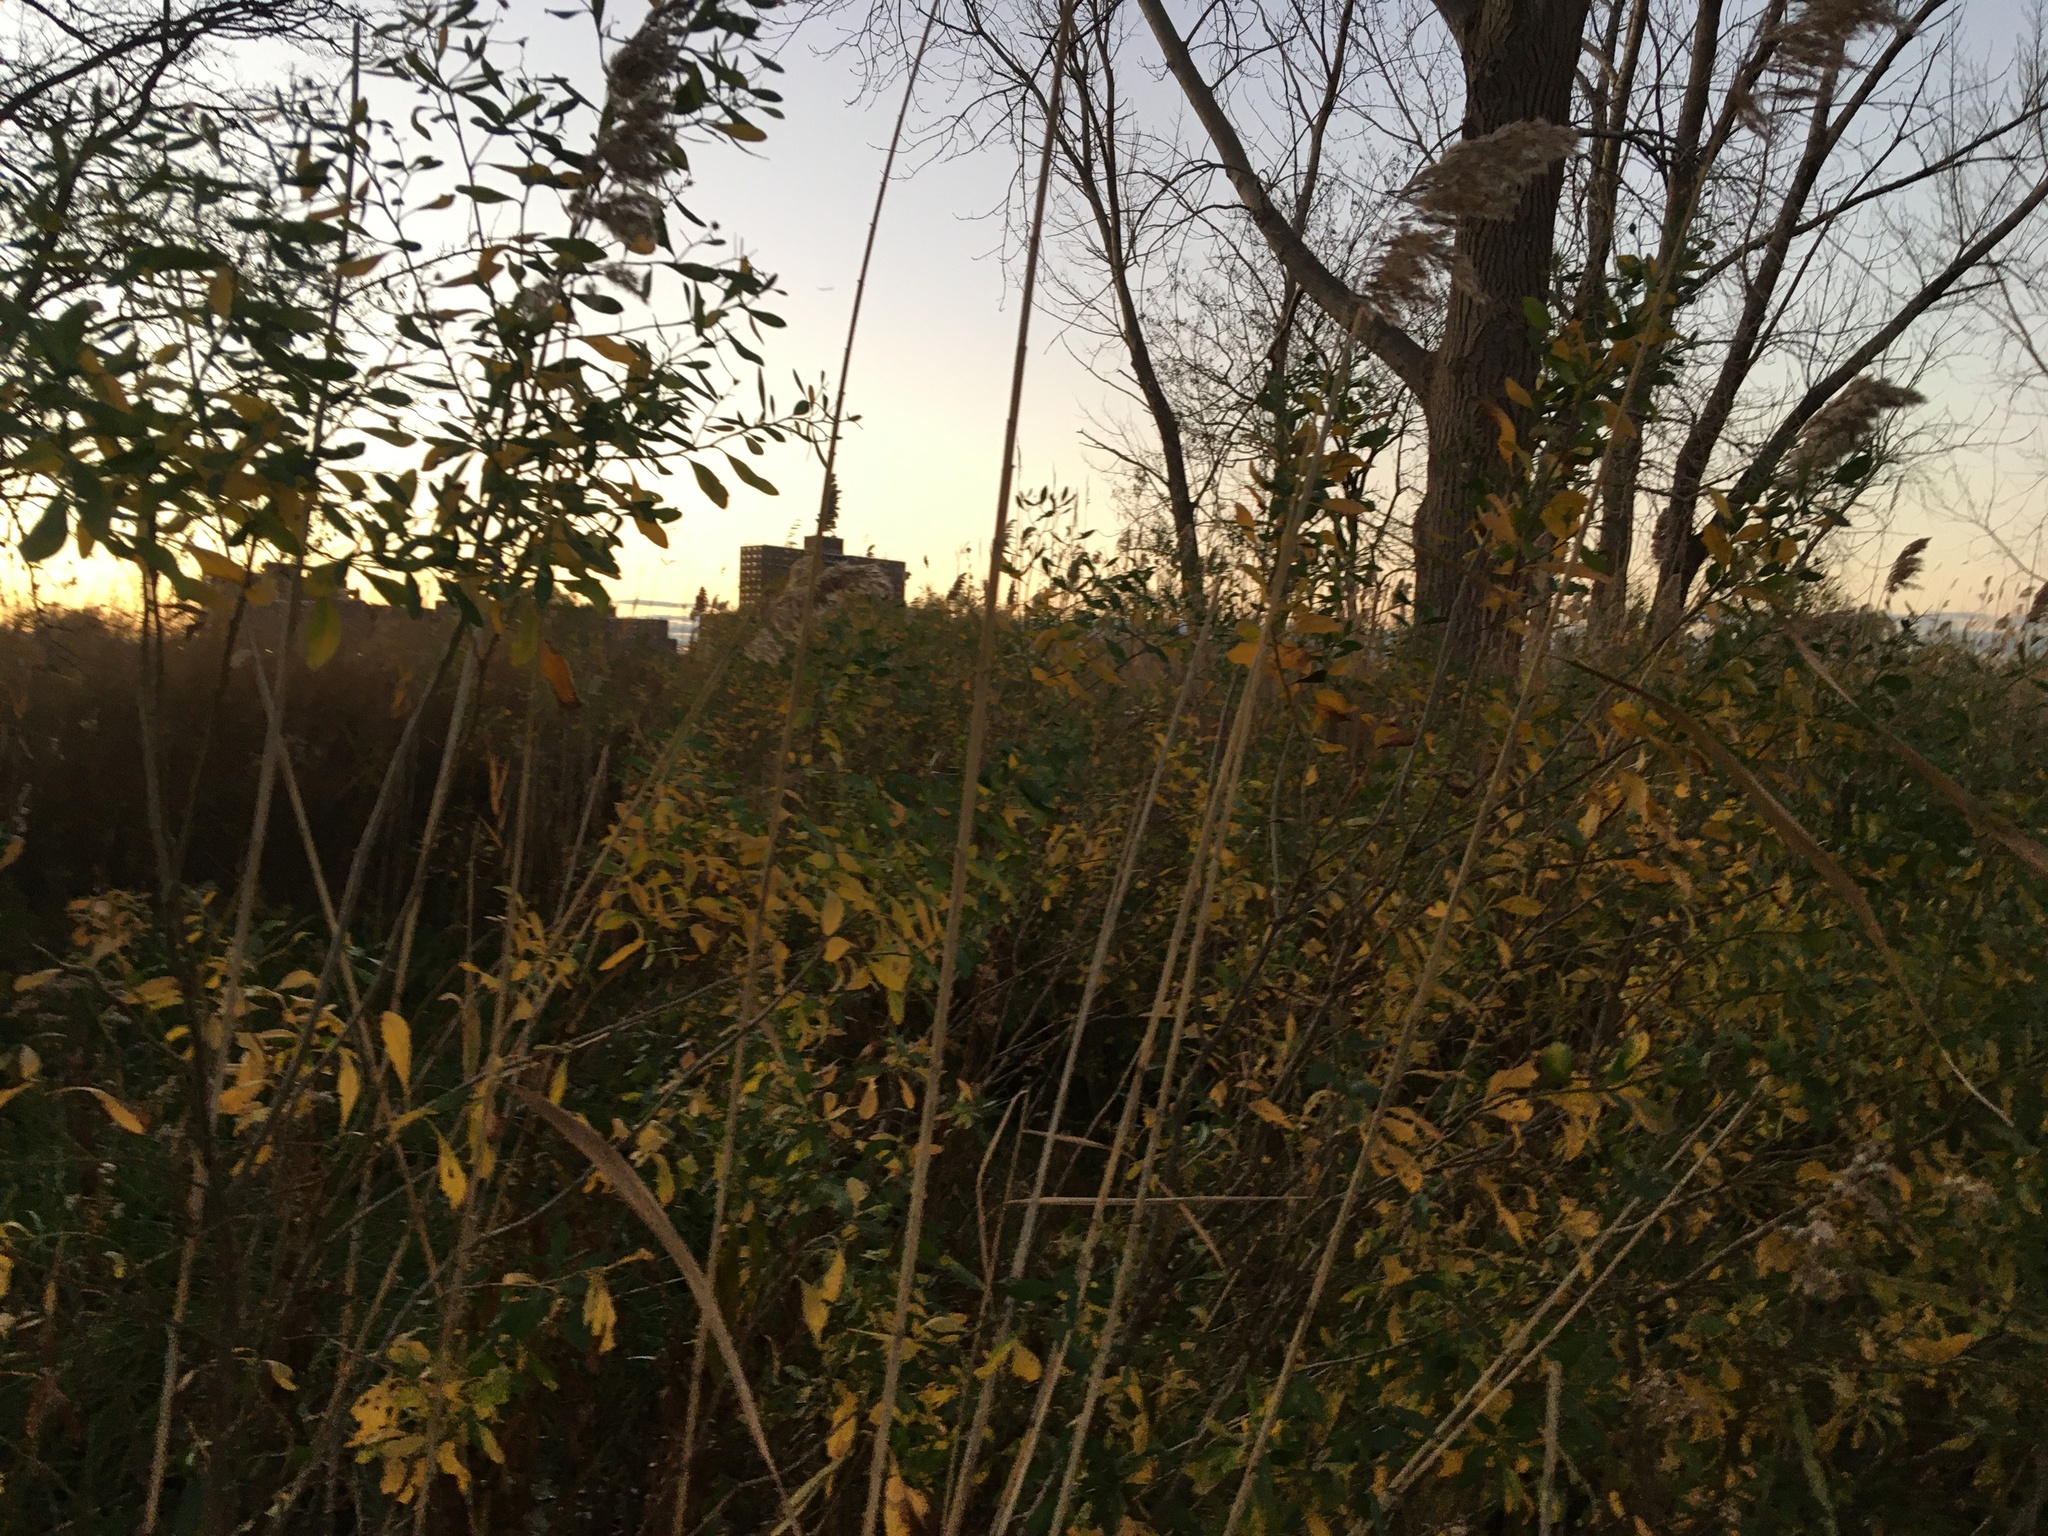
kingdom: Plantae
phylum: Tracheophyta
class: Magnoliopsida
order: Asterales
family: Asteraceae
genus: Baccharis
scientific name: Baccharis halimifolia
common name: Eastern baccharis
